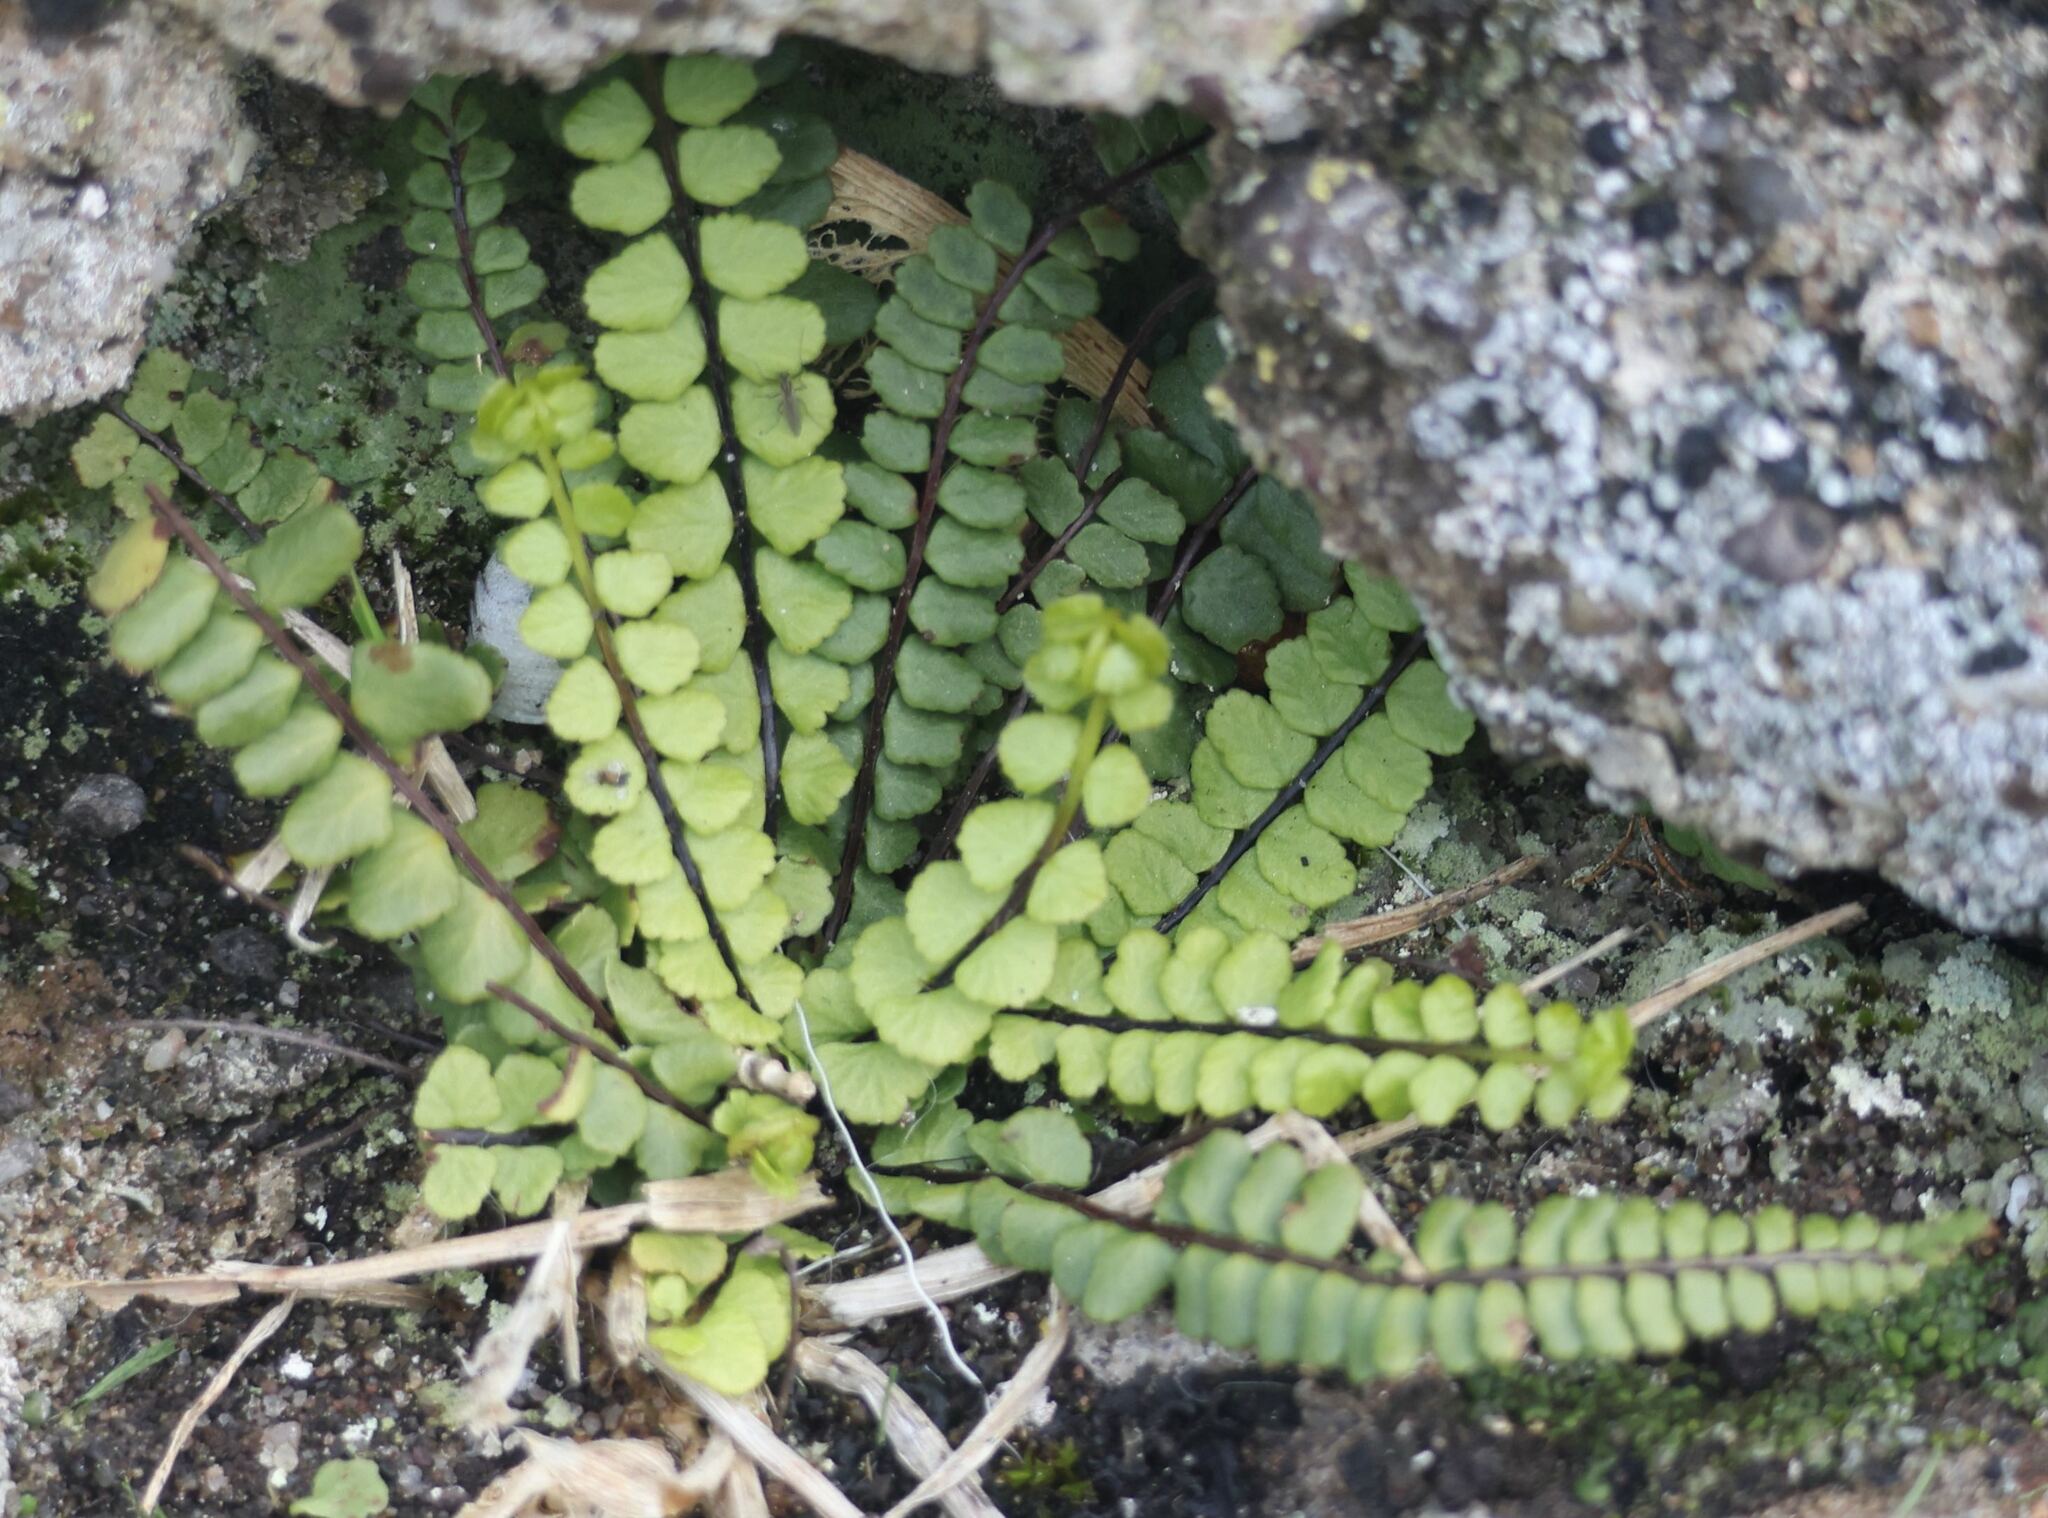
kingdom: Plantae
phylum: Tracheophyta
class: Polypodiopsida
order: Polypodiales
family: Aspleniaceae
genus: Asplenium
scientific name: Asplenium trichomanes
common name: Maidenhair spleenwort
